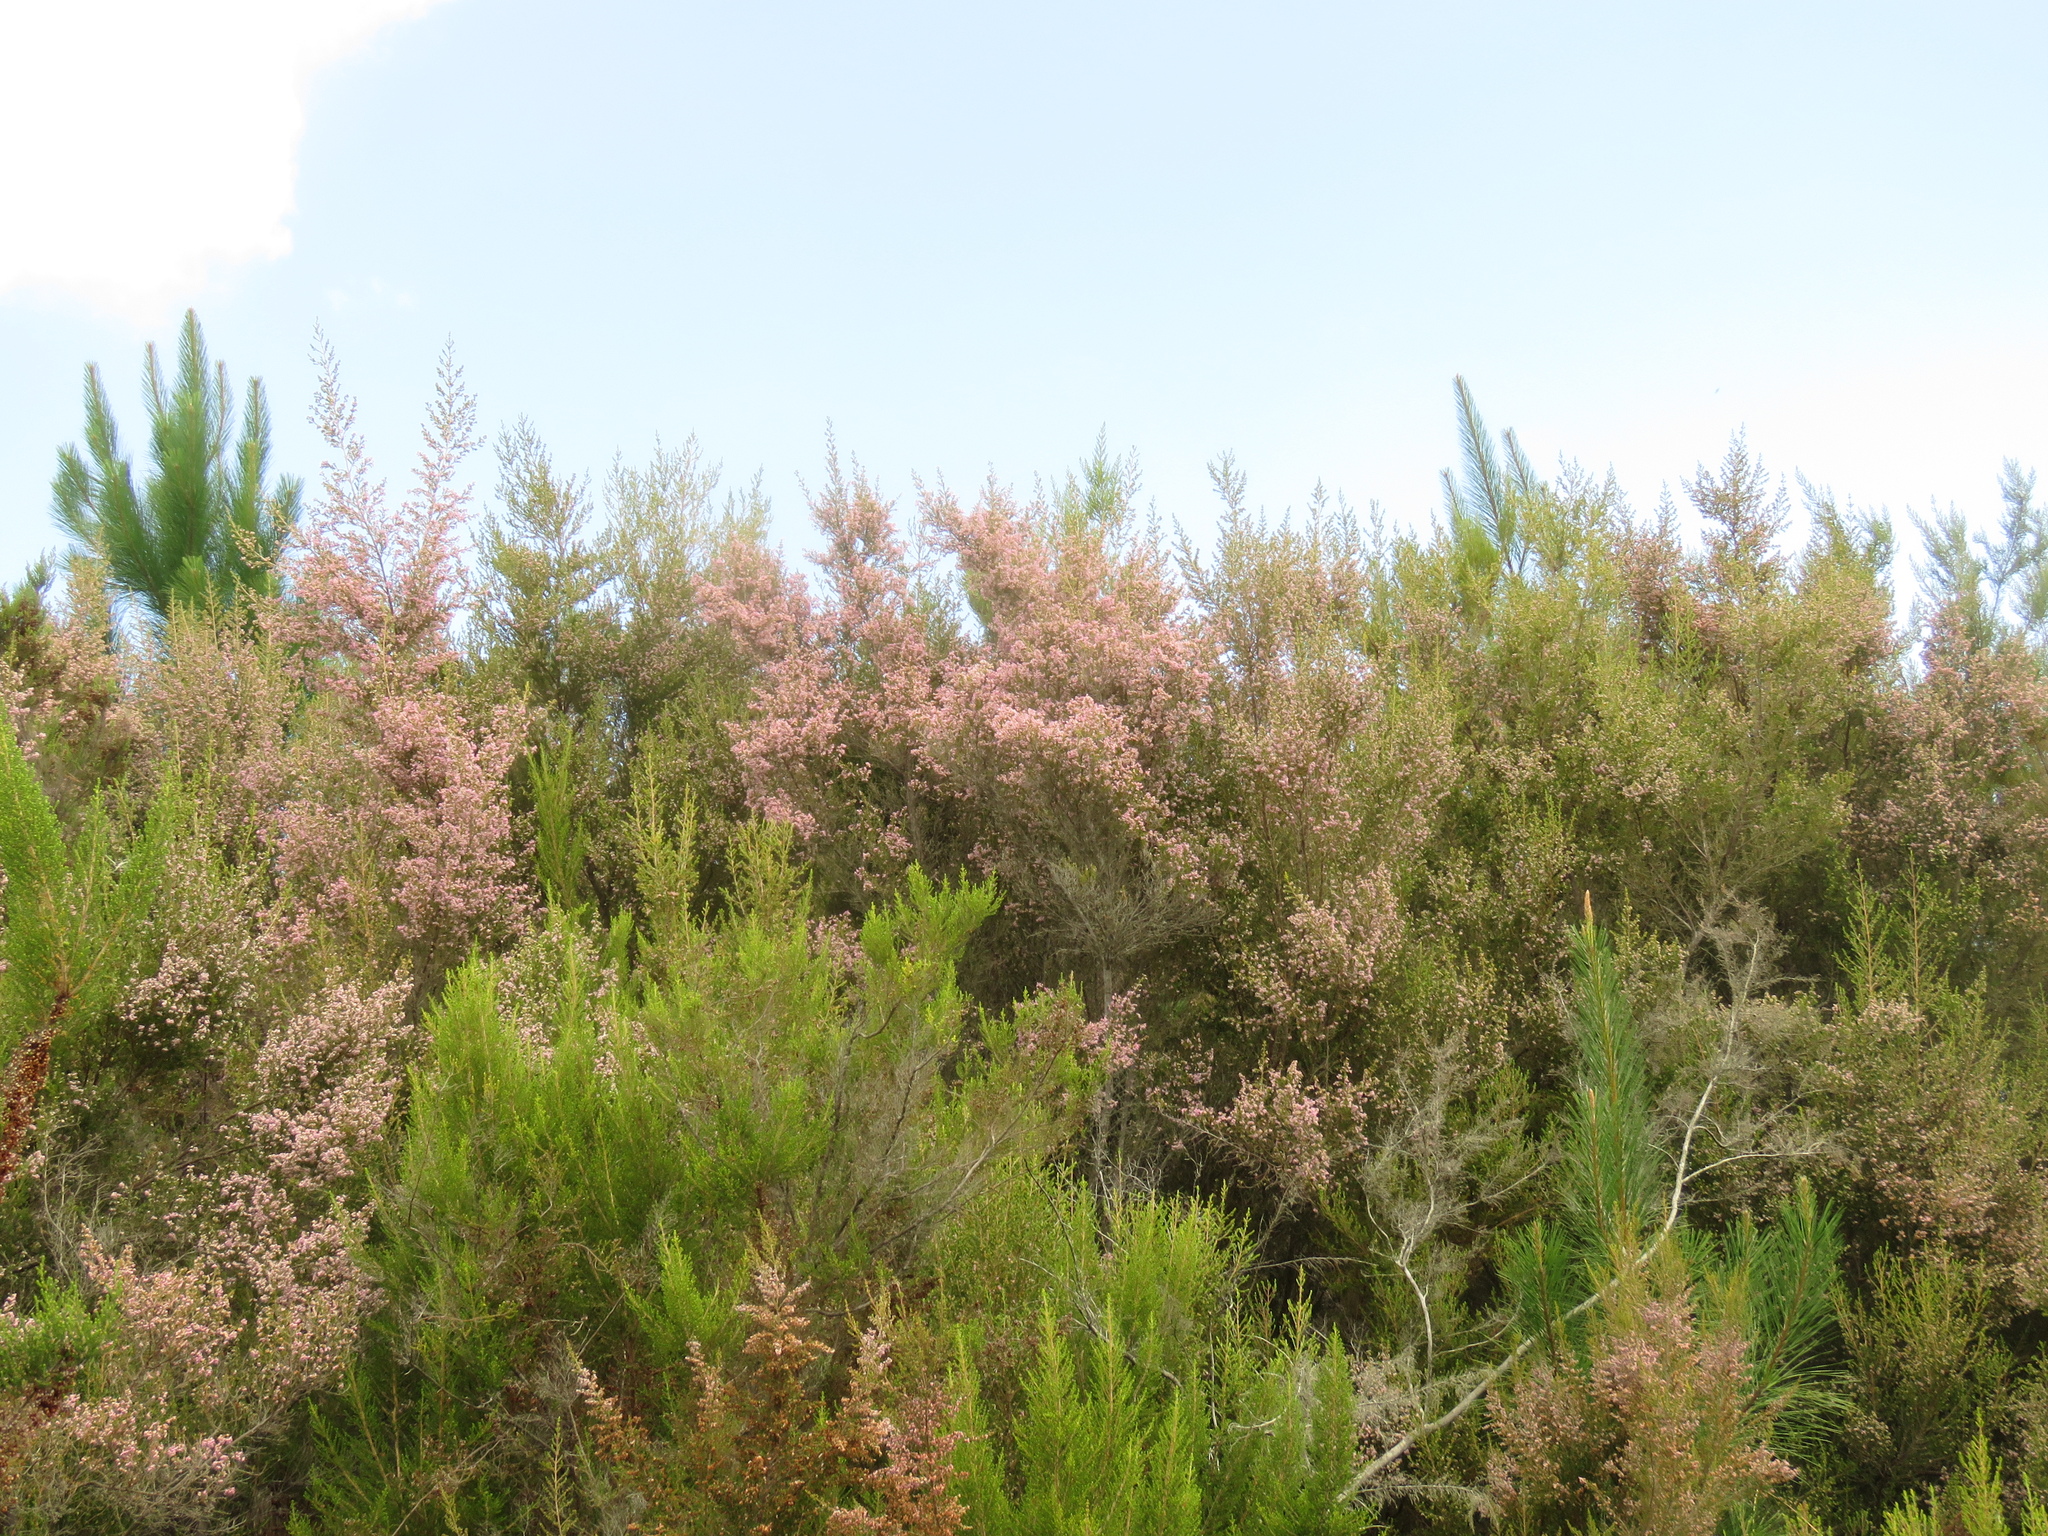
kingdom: Plantae
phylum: Tracheophyta
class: Magnoliopsida
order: Ericales
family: Ericaceae
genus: Erica
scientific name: Erica sparsa
